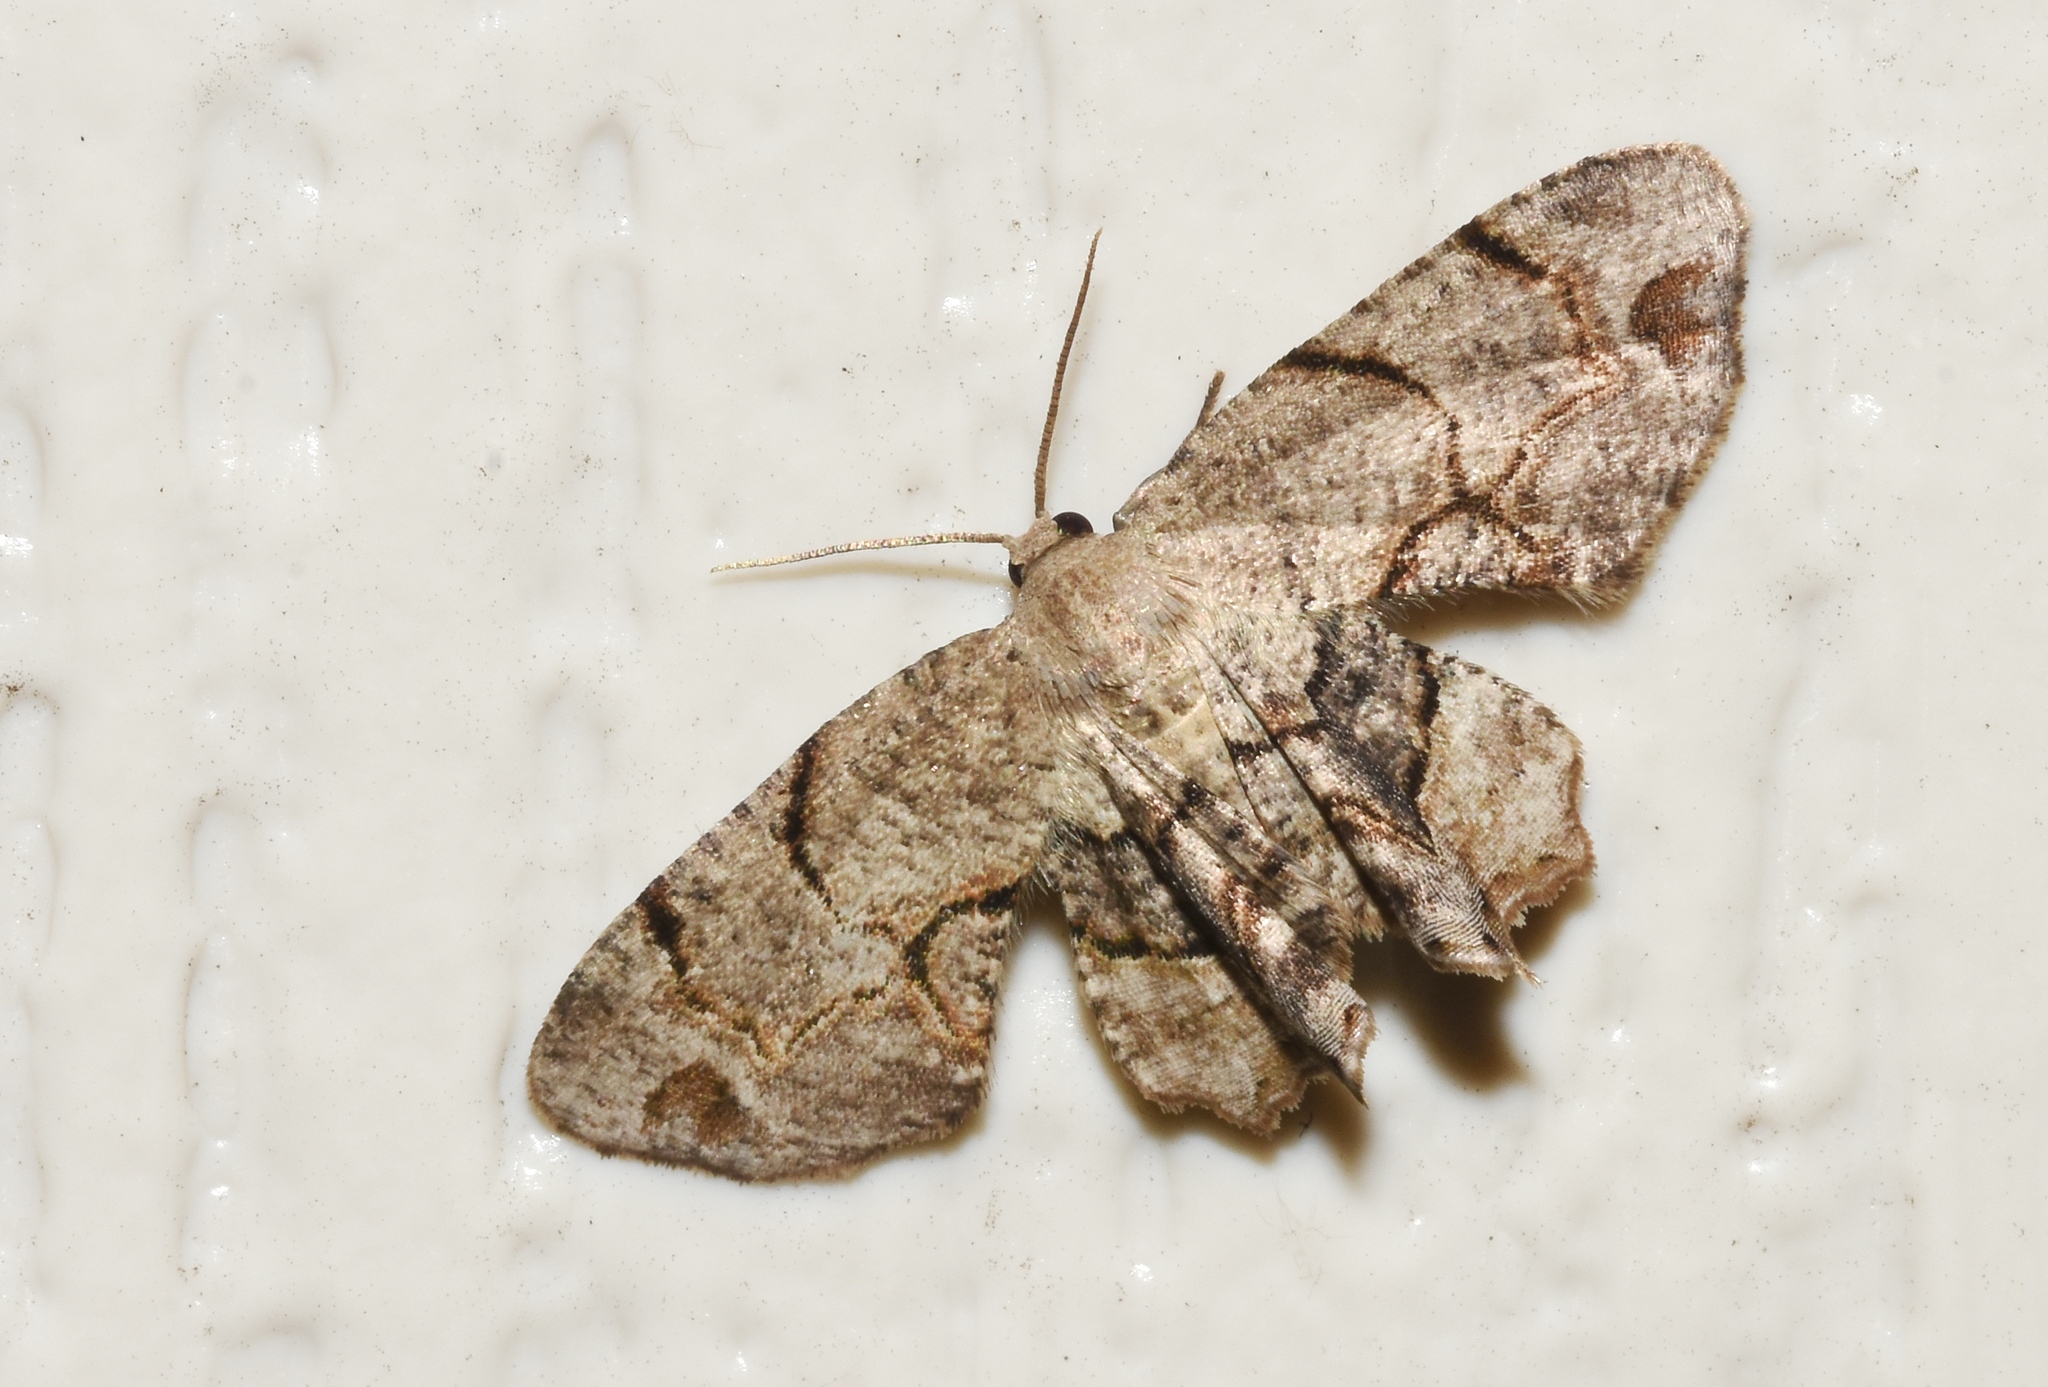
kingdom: Animalia
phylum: Arthropoda
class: Insecta
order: Lepidoptera
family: Uraniidae
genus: Epiplema
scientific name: Epiplema Callizzia amorata
